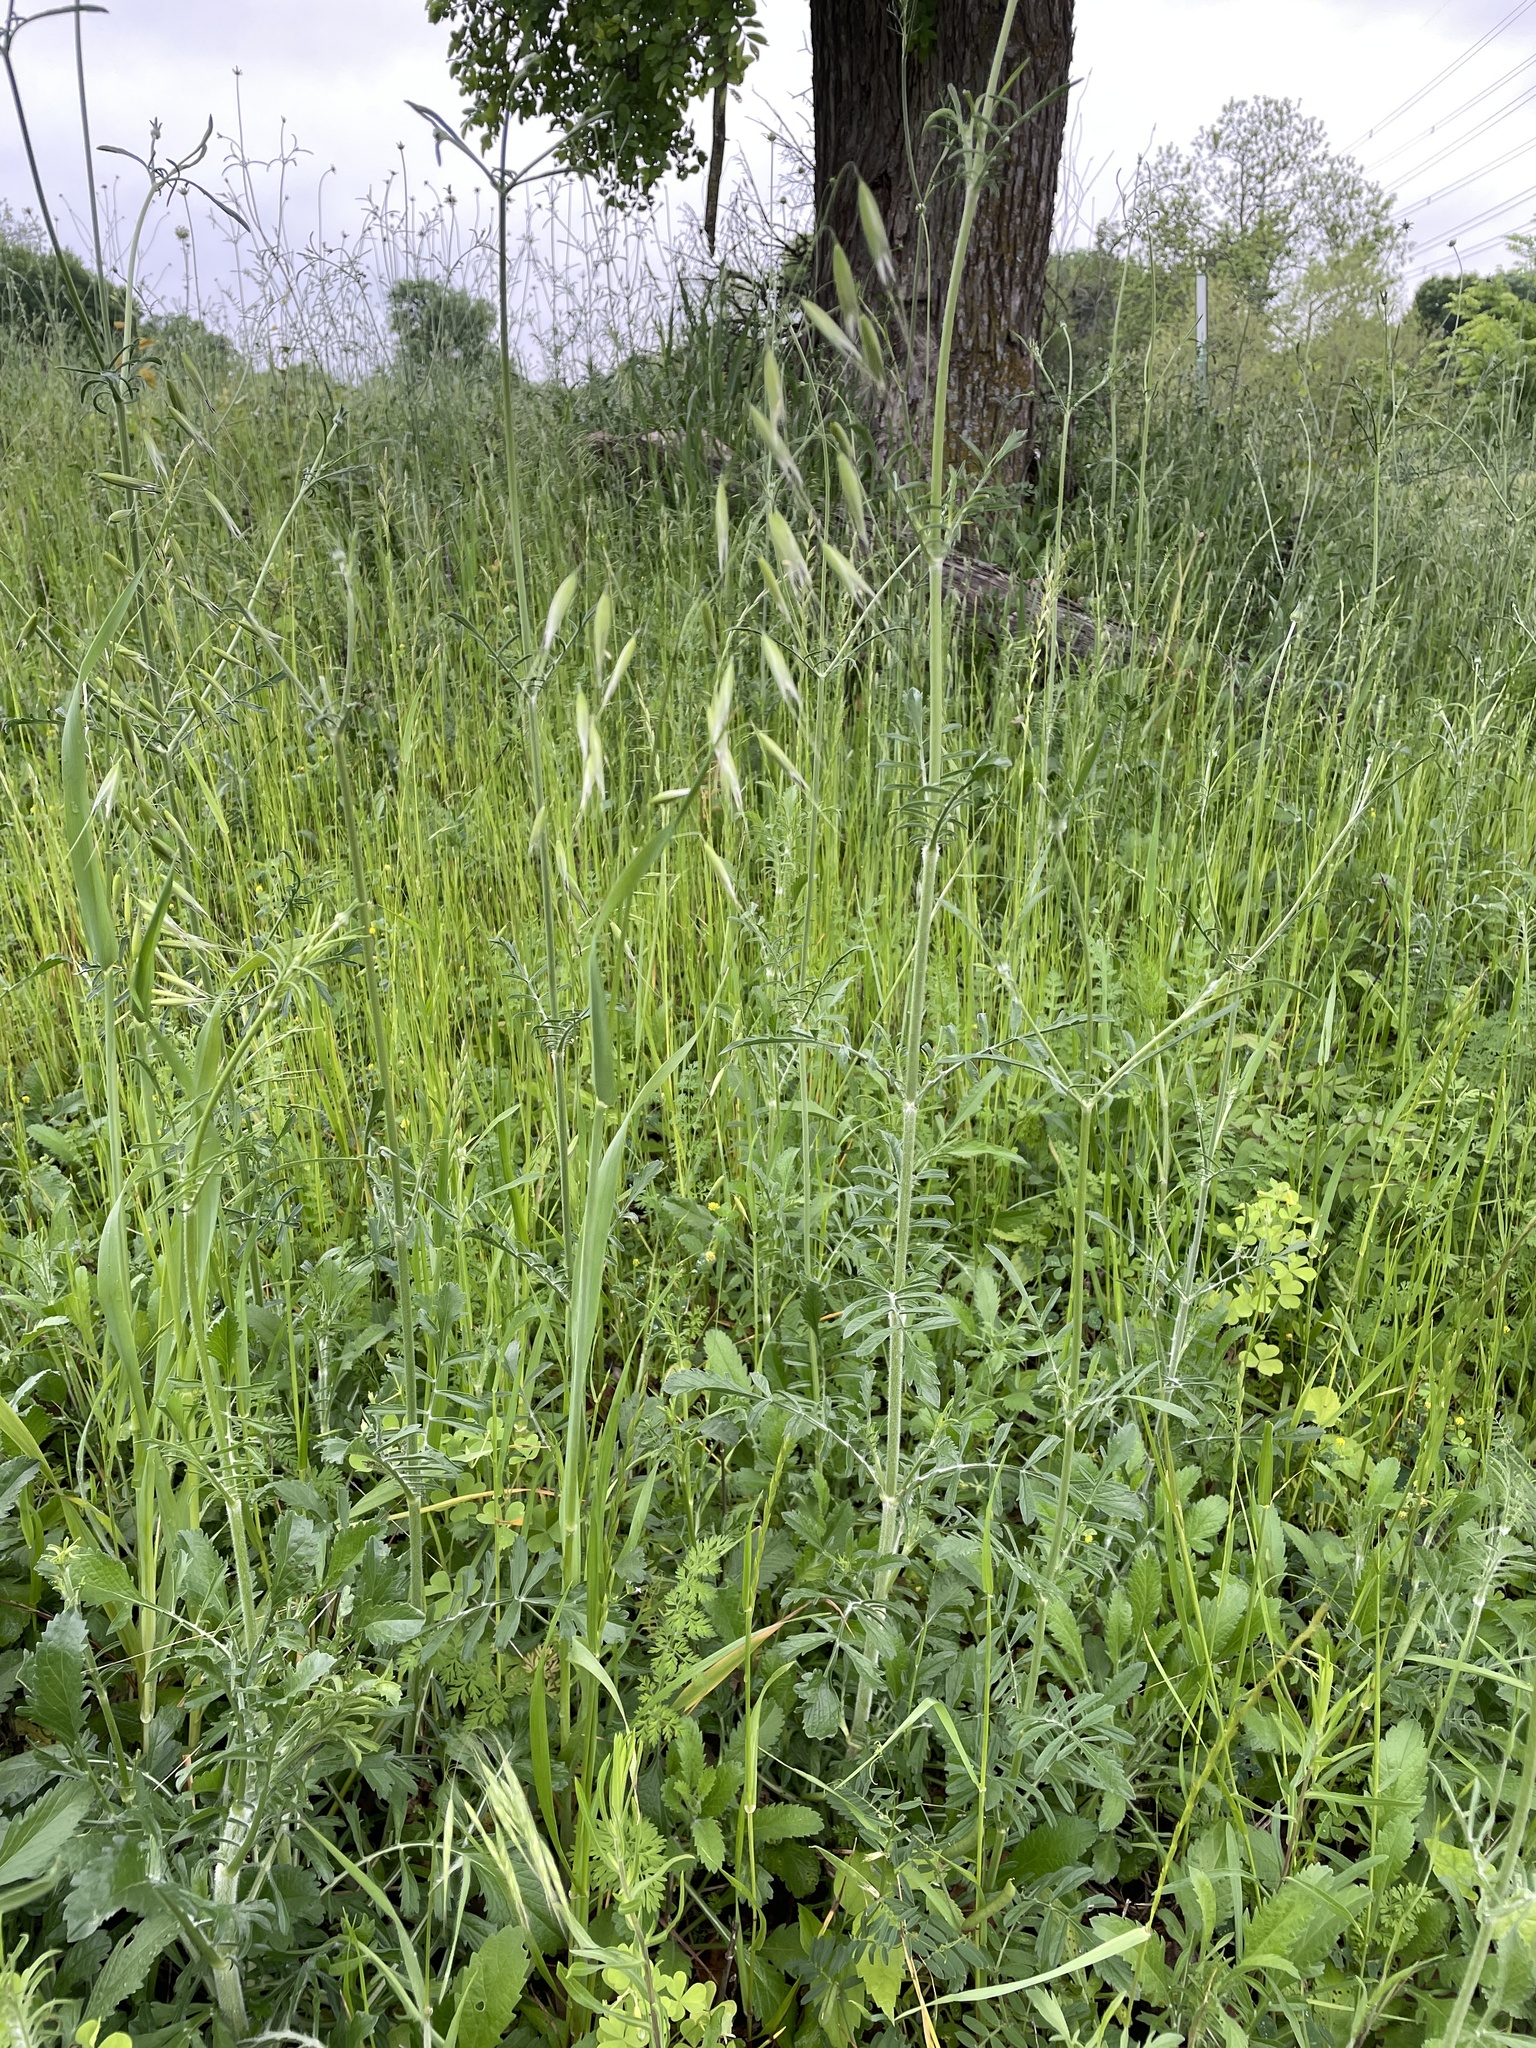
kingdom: Plantae
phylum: Tracheophyta
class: Liliopsida
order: Poales
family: Poaceae
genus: Avena
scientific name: Avena fatua
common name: Wild oat
